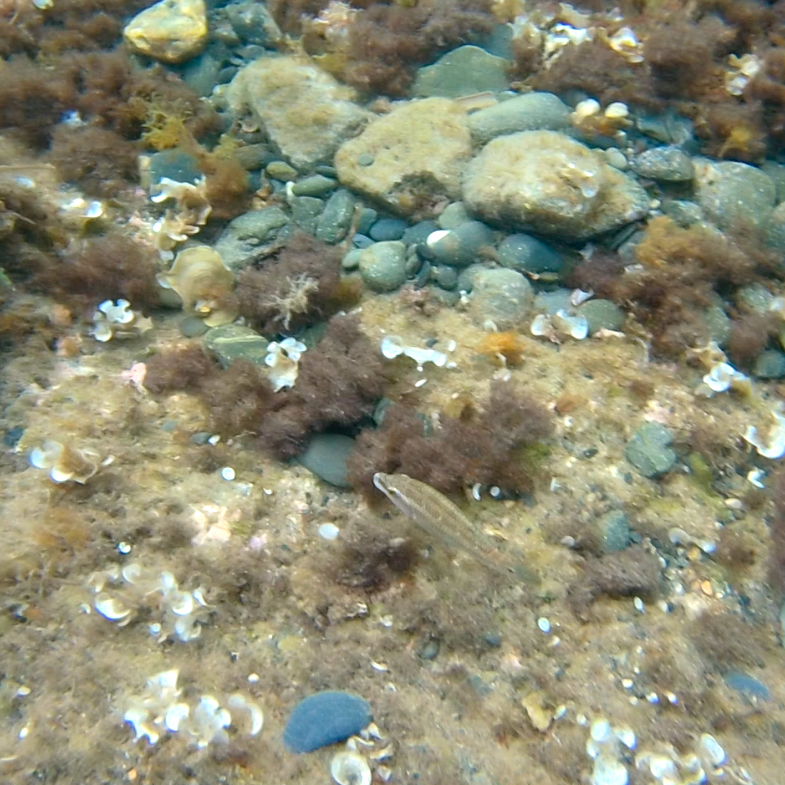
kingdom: Animalia
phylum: Chordata
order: Perciformes
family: Labridae
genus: Symphodus
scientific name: Symphodus tinca
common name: Peacock wrasse
